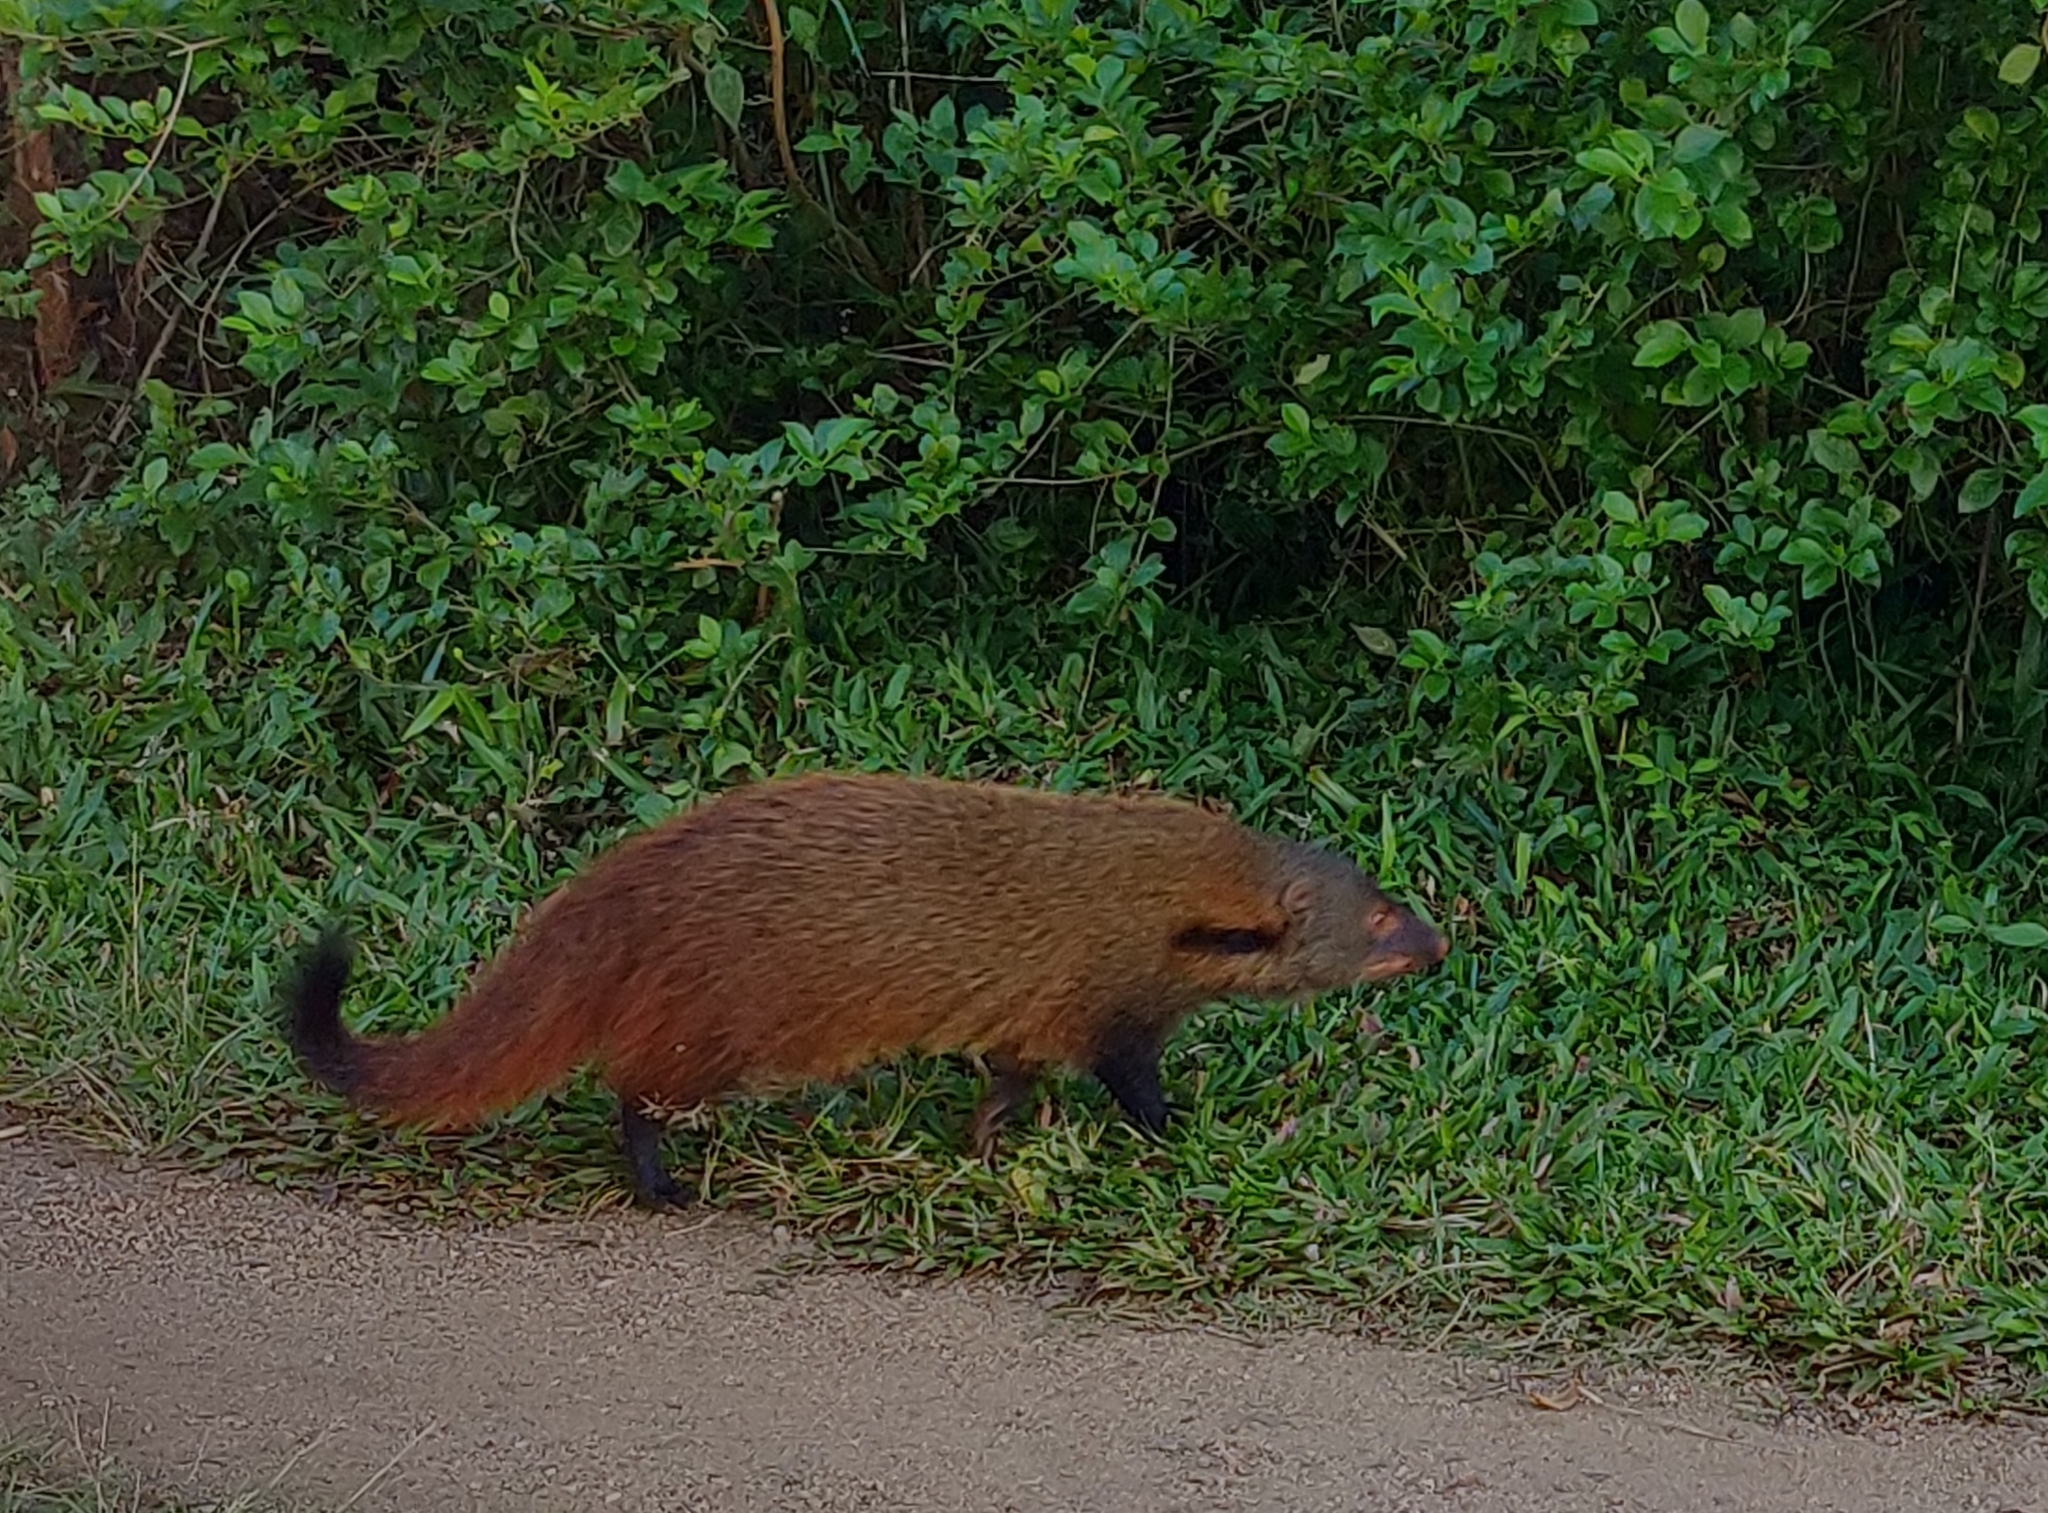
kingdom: Animalia
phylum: Chordata
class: Mammalia
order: Carnivora
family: Herpestidae
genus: Herpestes
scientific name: Herpestes vitticollis
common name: Stripe-necked mongoose
